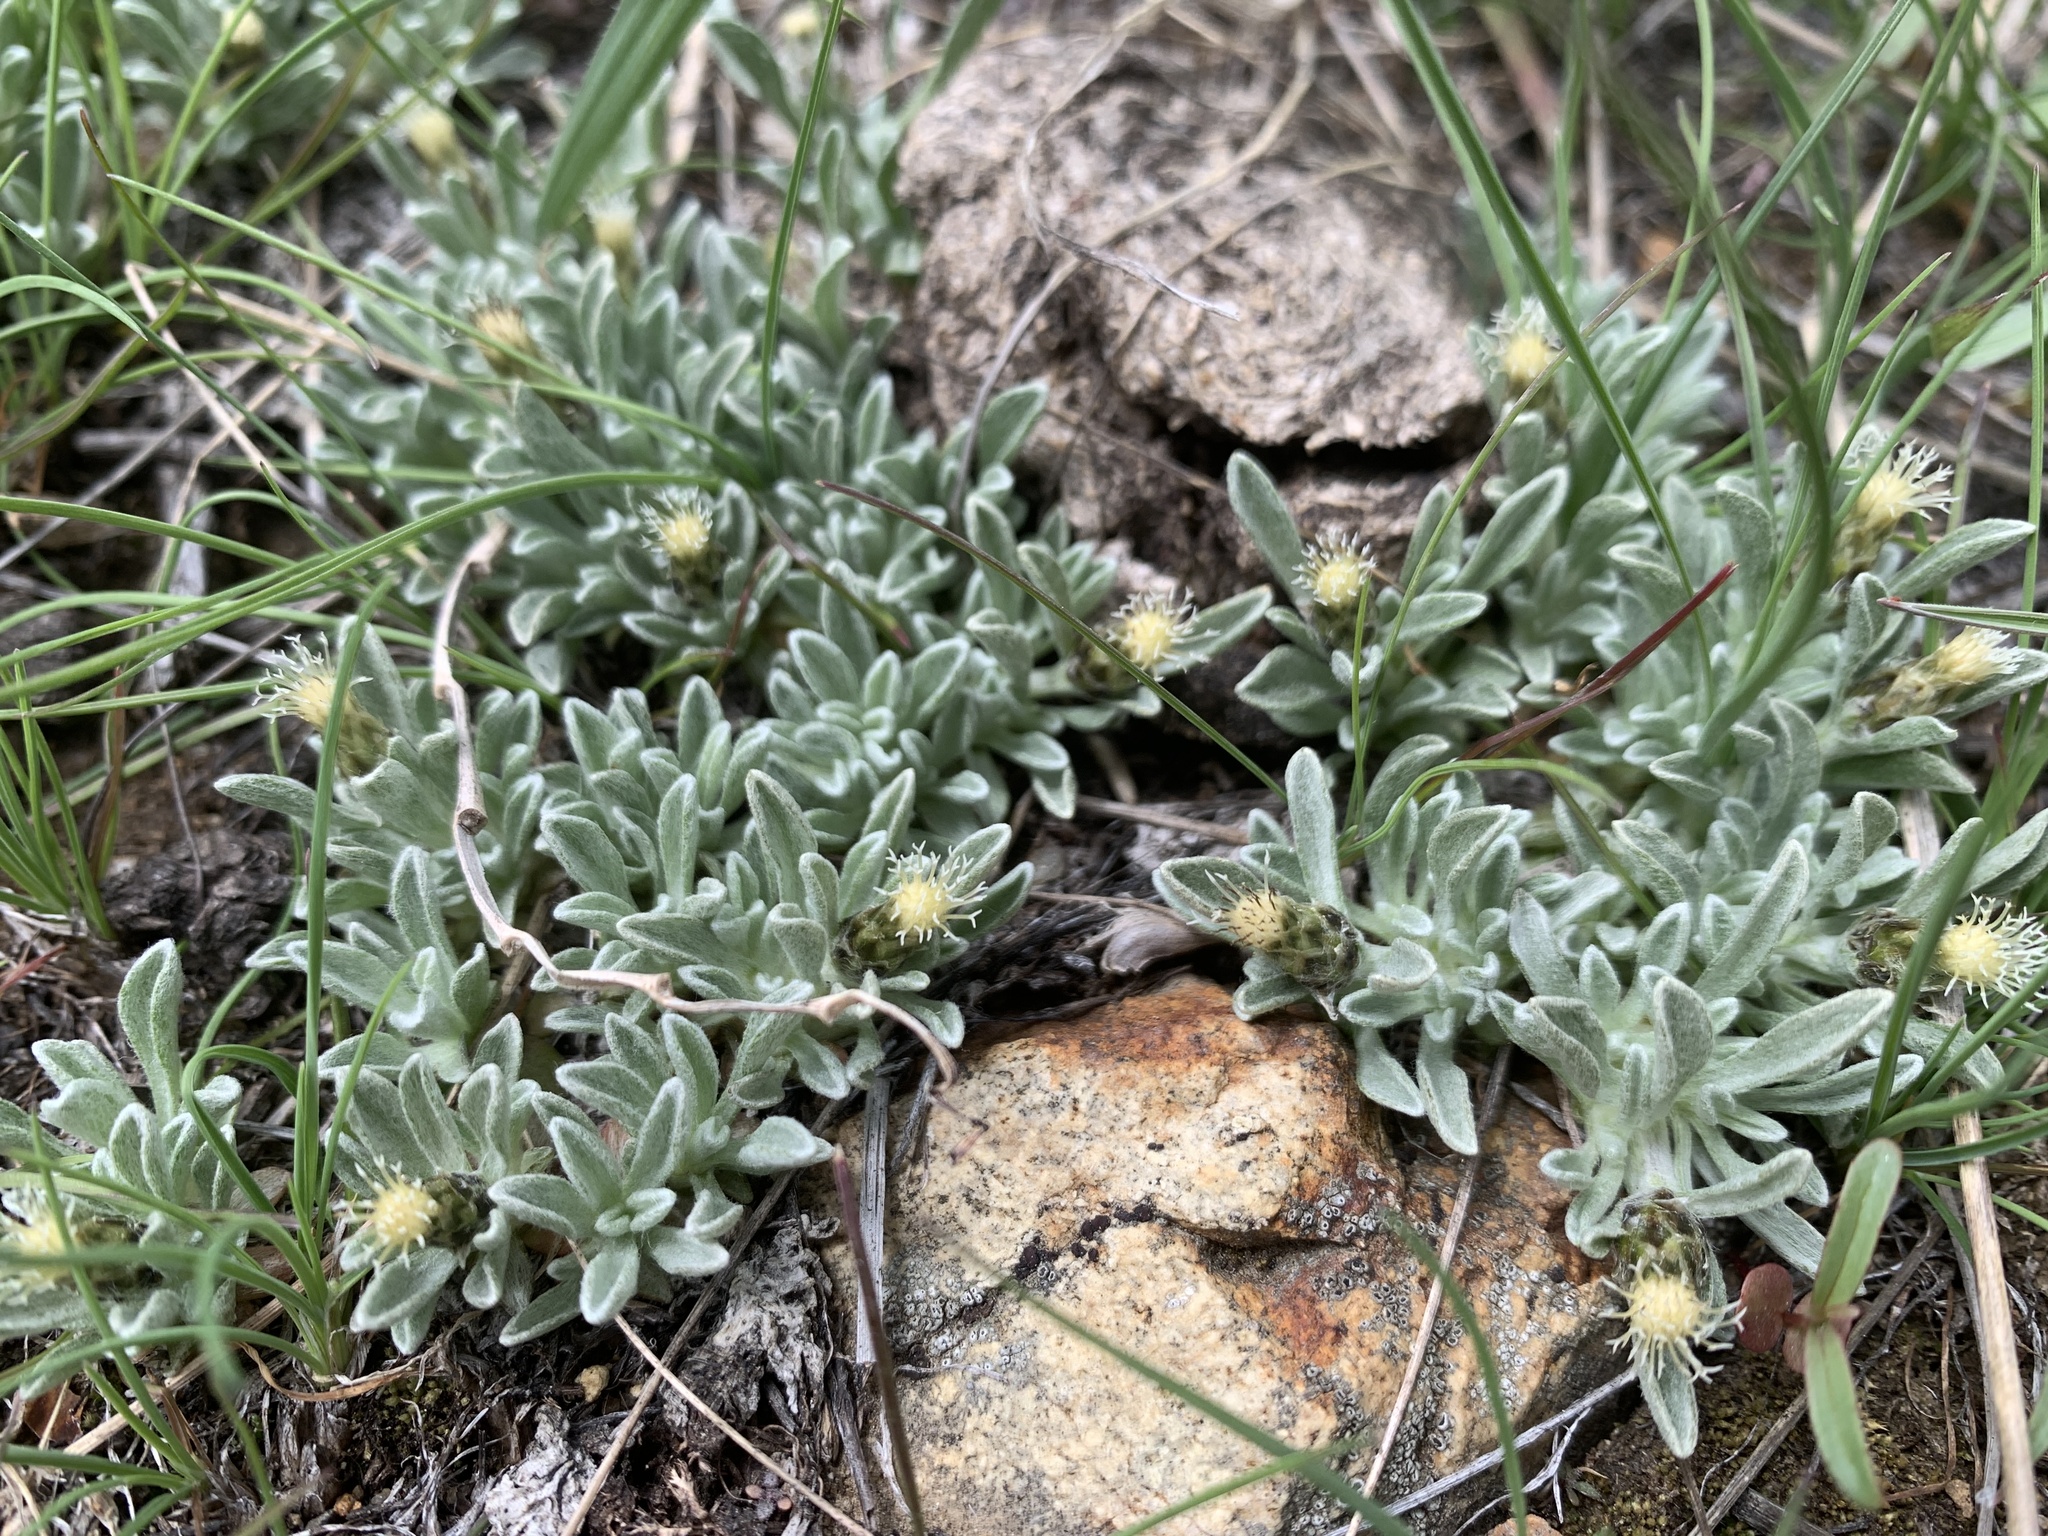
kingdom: Plantae
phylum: Tracheophyta
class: Magnoliopsida
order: Asterales
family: Asteraceae
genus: Antennaria
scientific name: Antennaria dimorpha
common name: Cushion pussytoes
